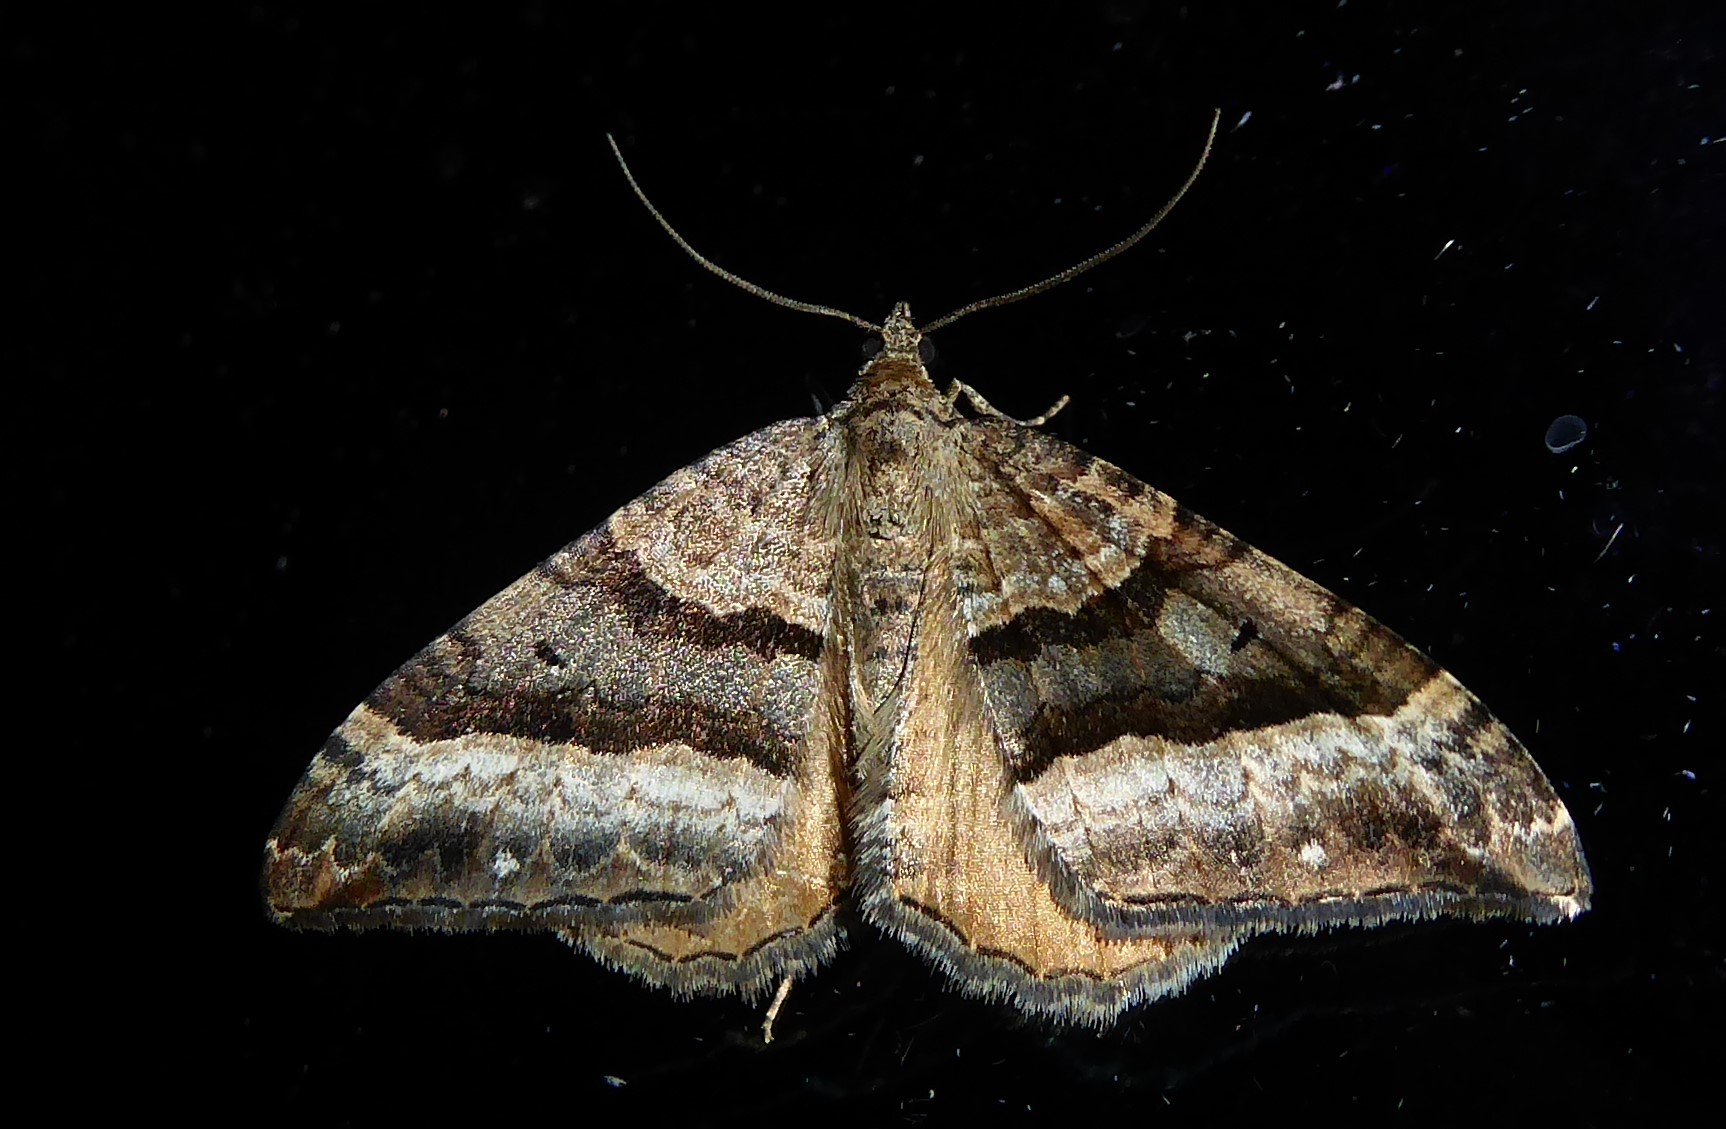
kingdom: Animalia
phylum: Arthropoda
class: Insecta
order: Lepidoptera
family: Geometridae
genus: Hydriomena
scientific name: Hydriomena deltoidata
